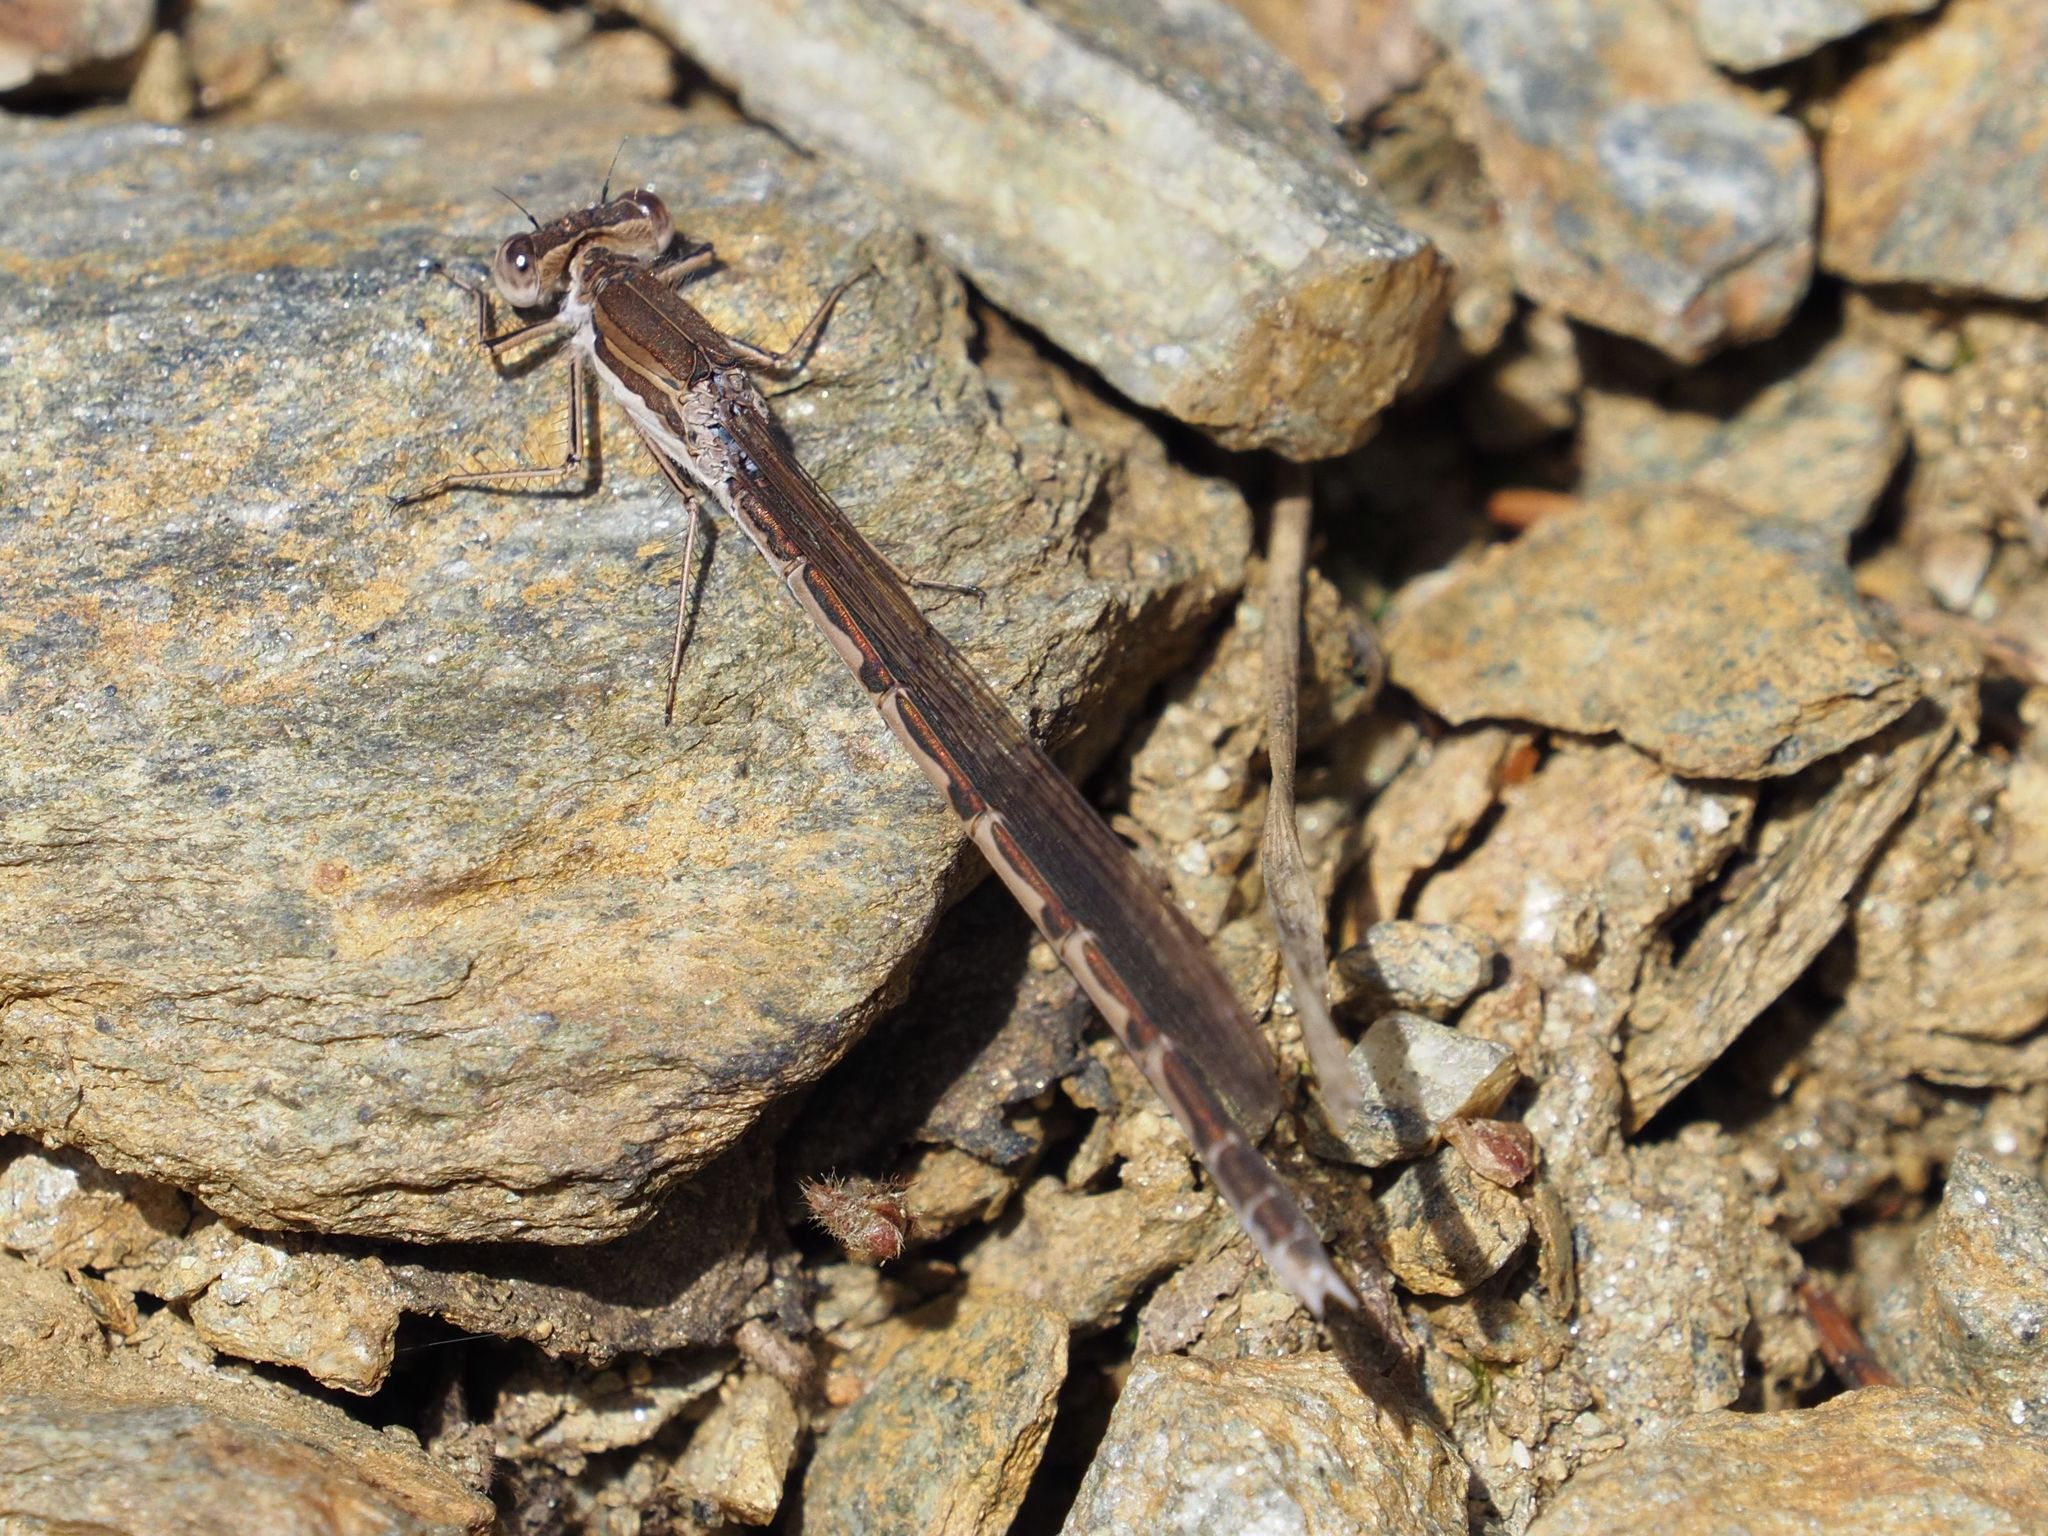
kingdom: Animalia
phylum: Arthropoda
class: Insecta
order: Odonata
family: Lestidae
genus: Sympecma
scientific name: Sympecma fusca
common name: Common winter damsel
